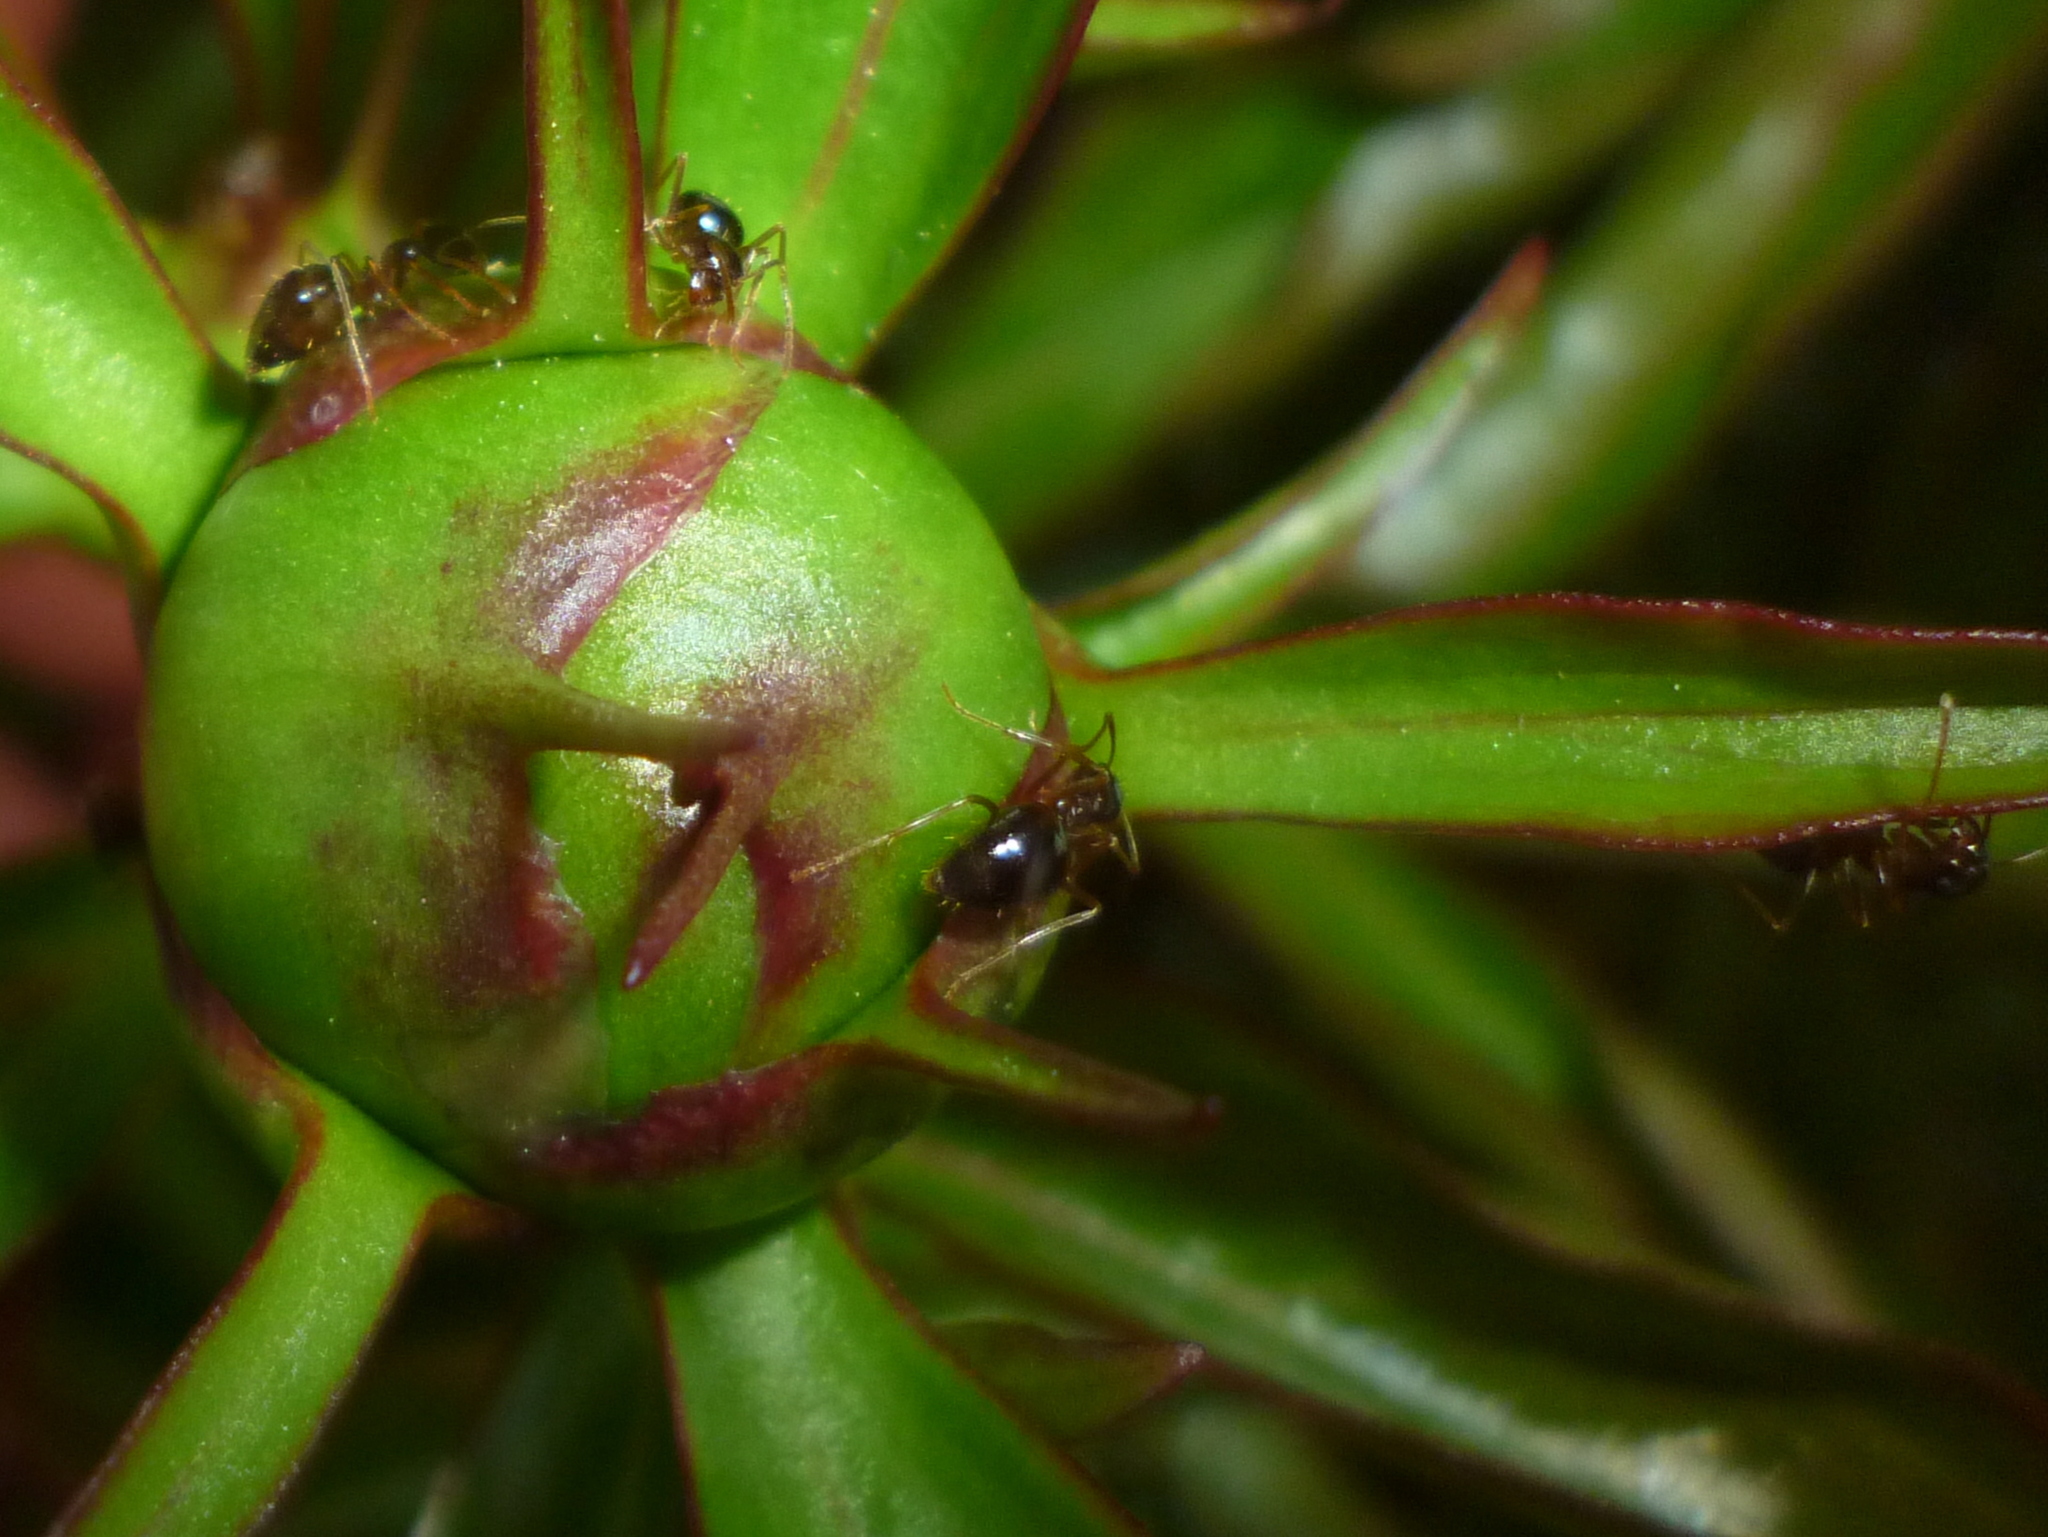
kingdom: Animalia
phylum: Arthropoda
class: Insecta
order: Hymenoptera
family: Formicidae
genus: Prenolepis
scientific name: Prenolepis imparis
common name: Small honey ant
